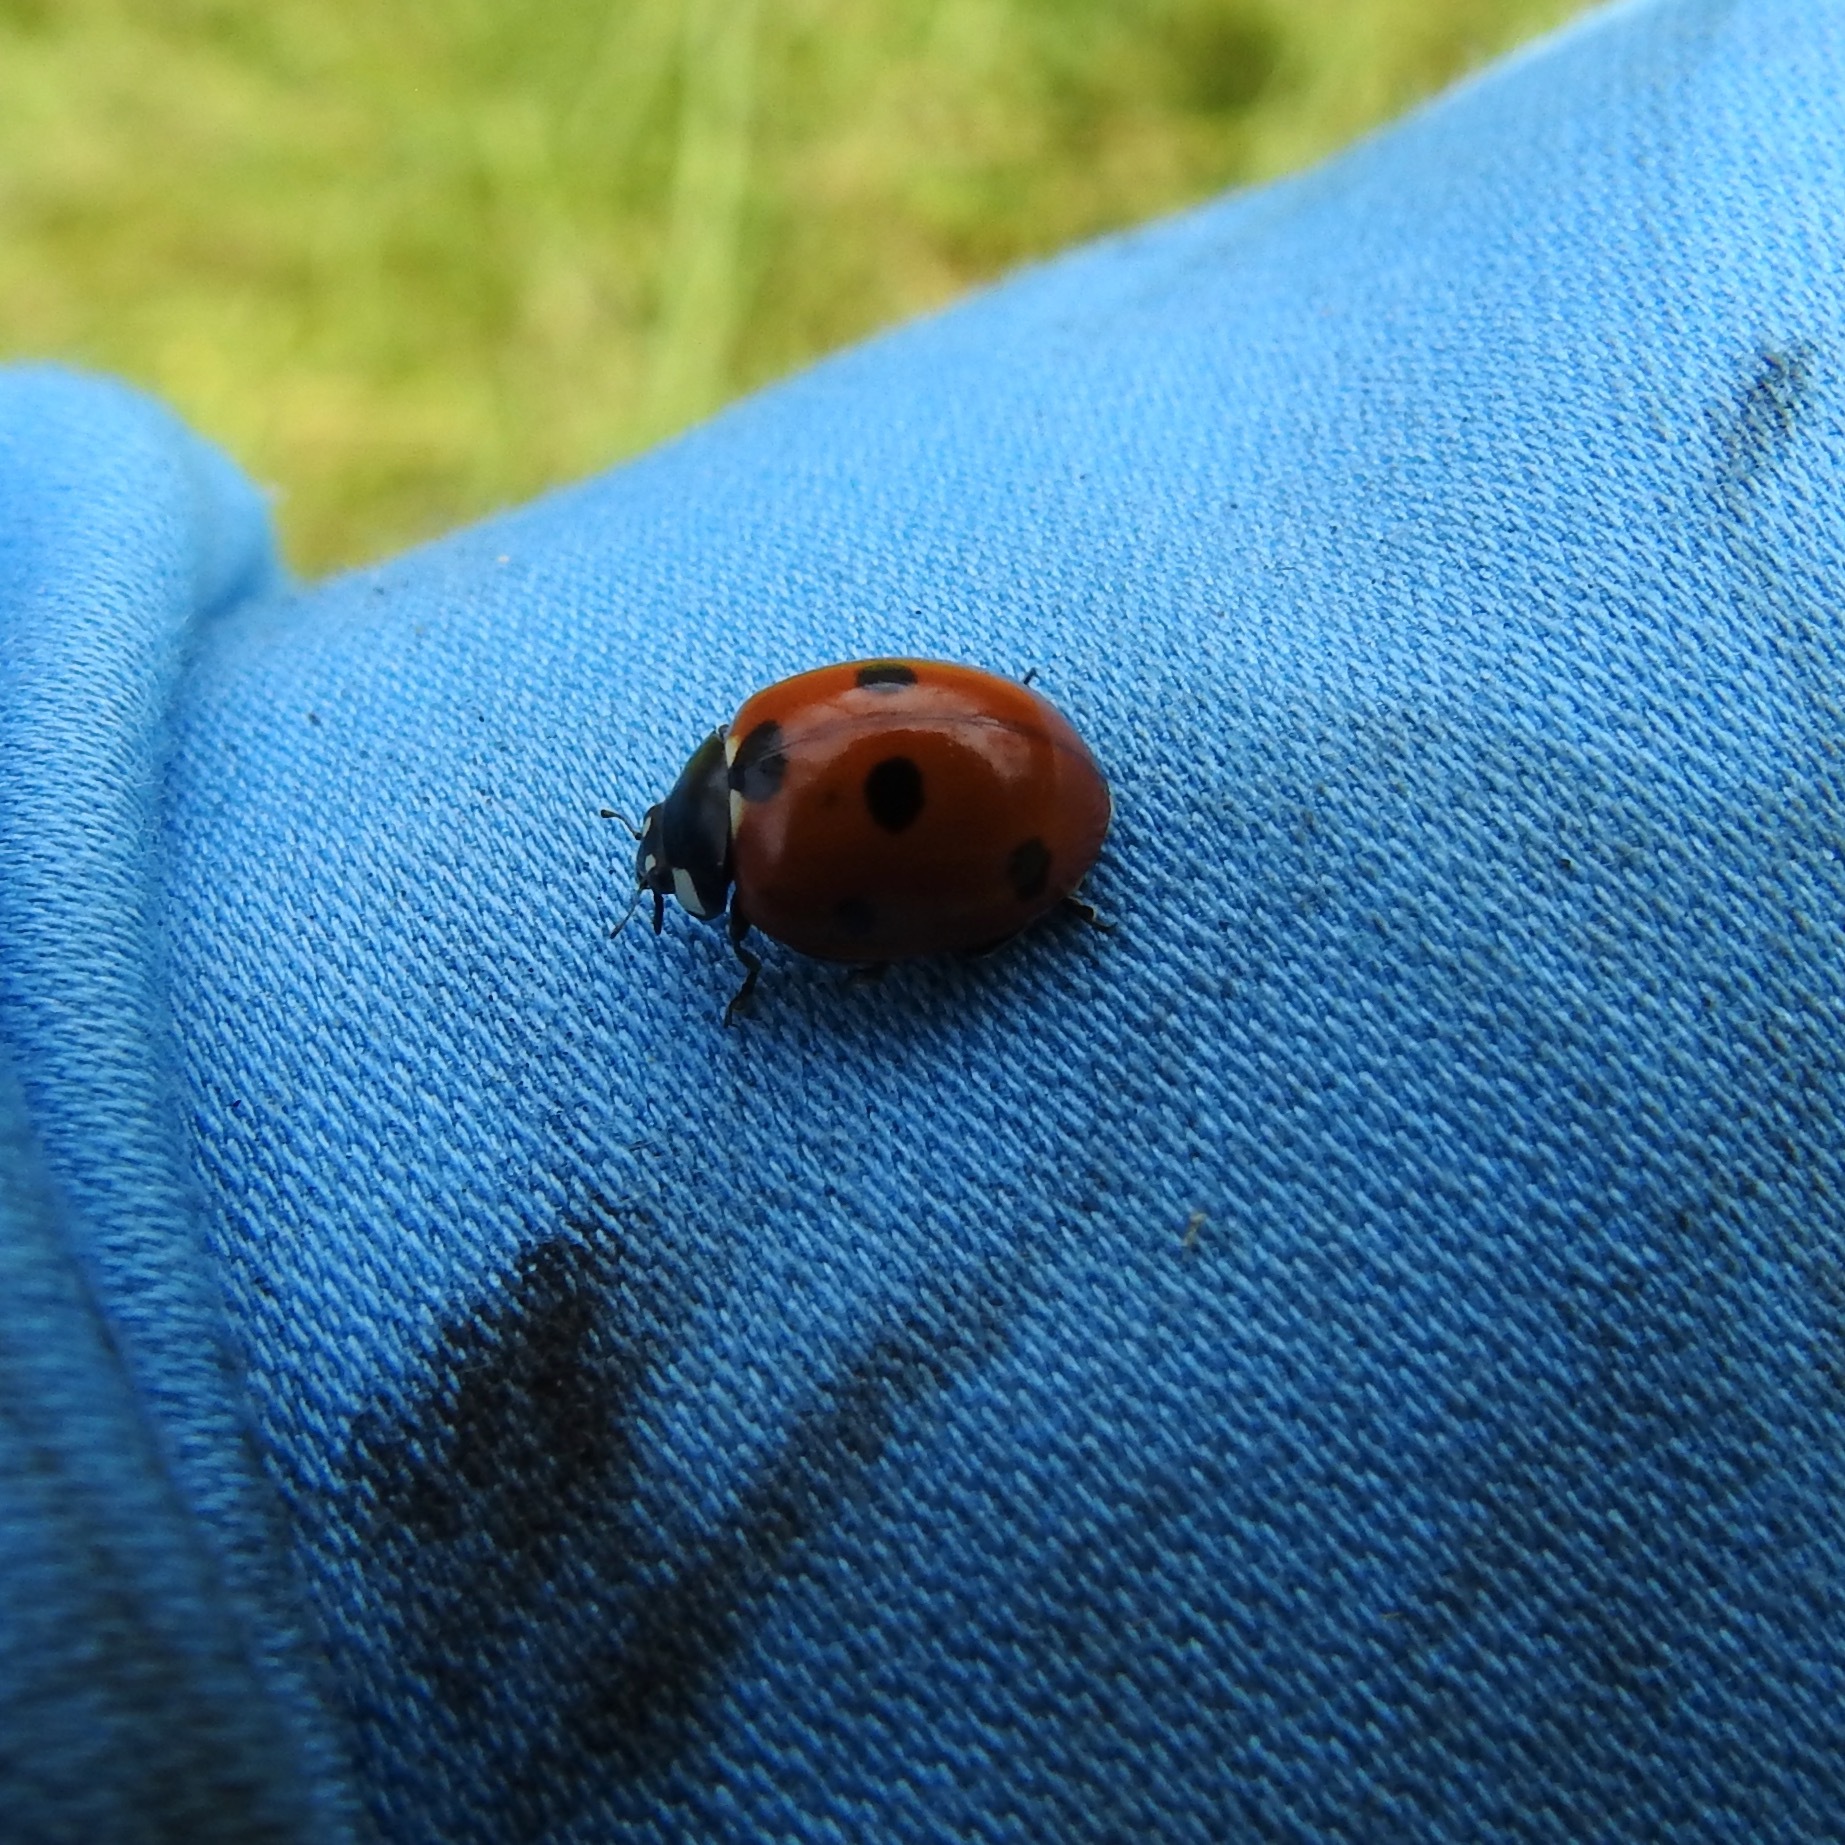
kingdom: Animalia
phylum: Arthropoda
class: Insecta
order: Coleoptera
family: Coccinellidae
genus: Coccinella
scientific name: Coccinella septempunctata
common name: Sevenspotted lady beetle
